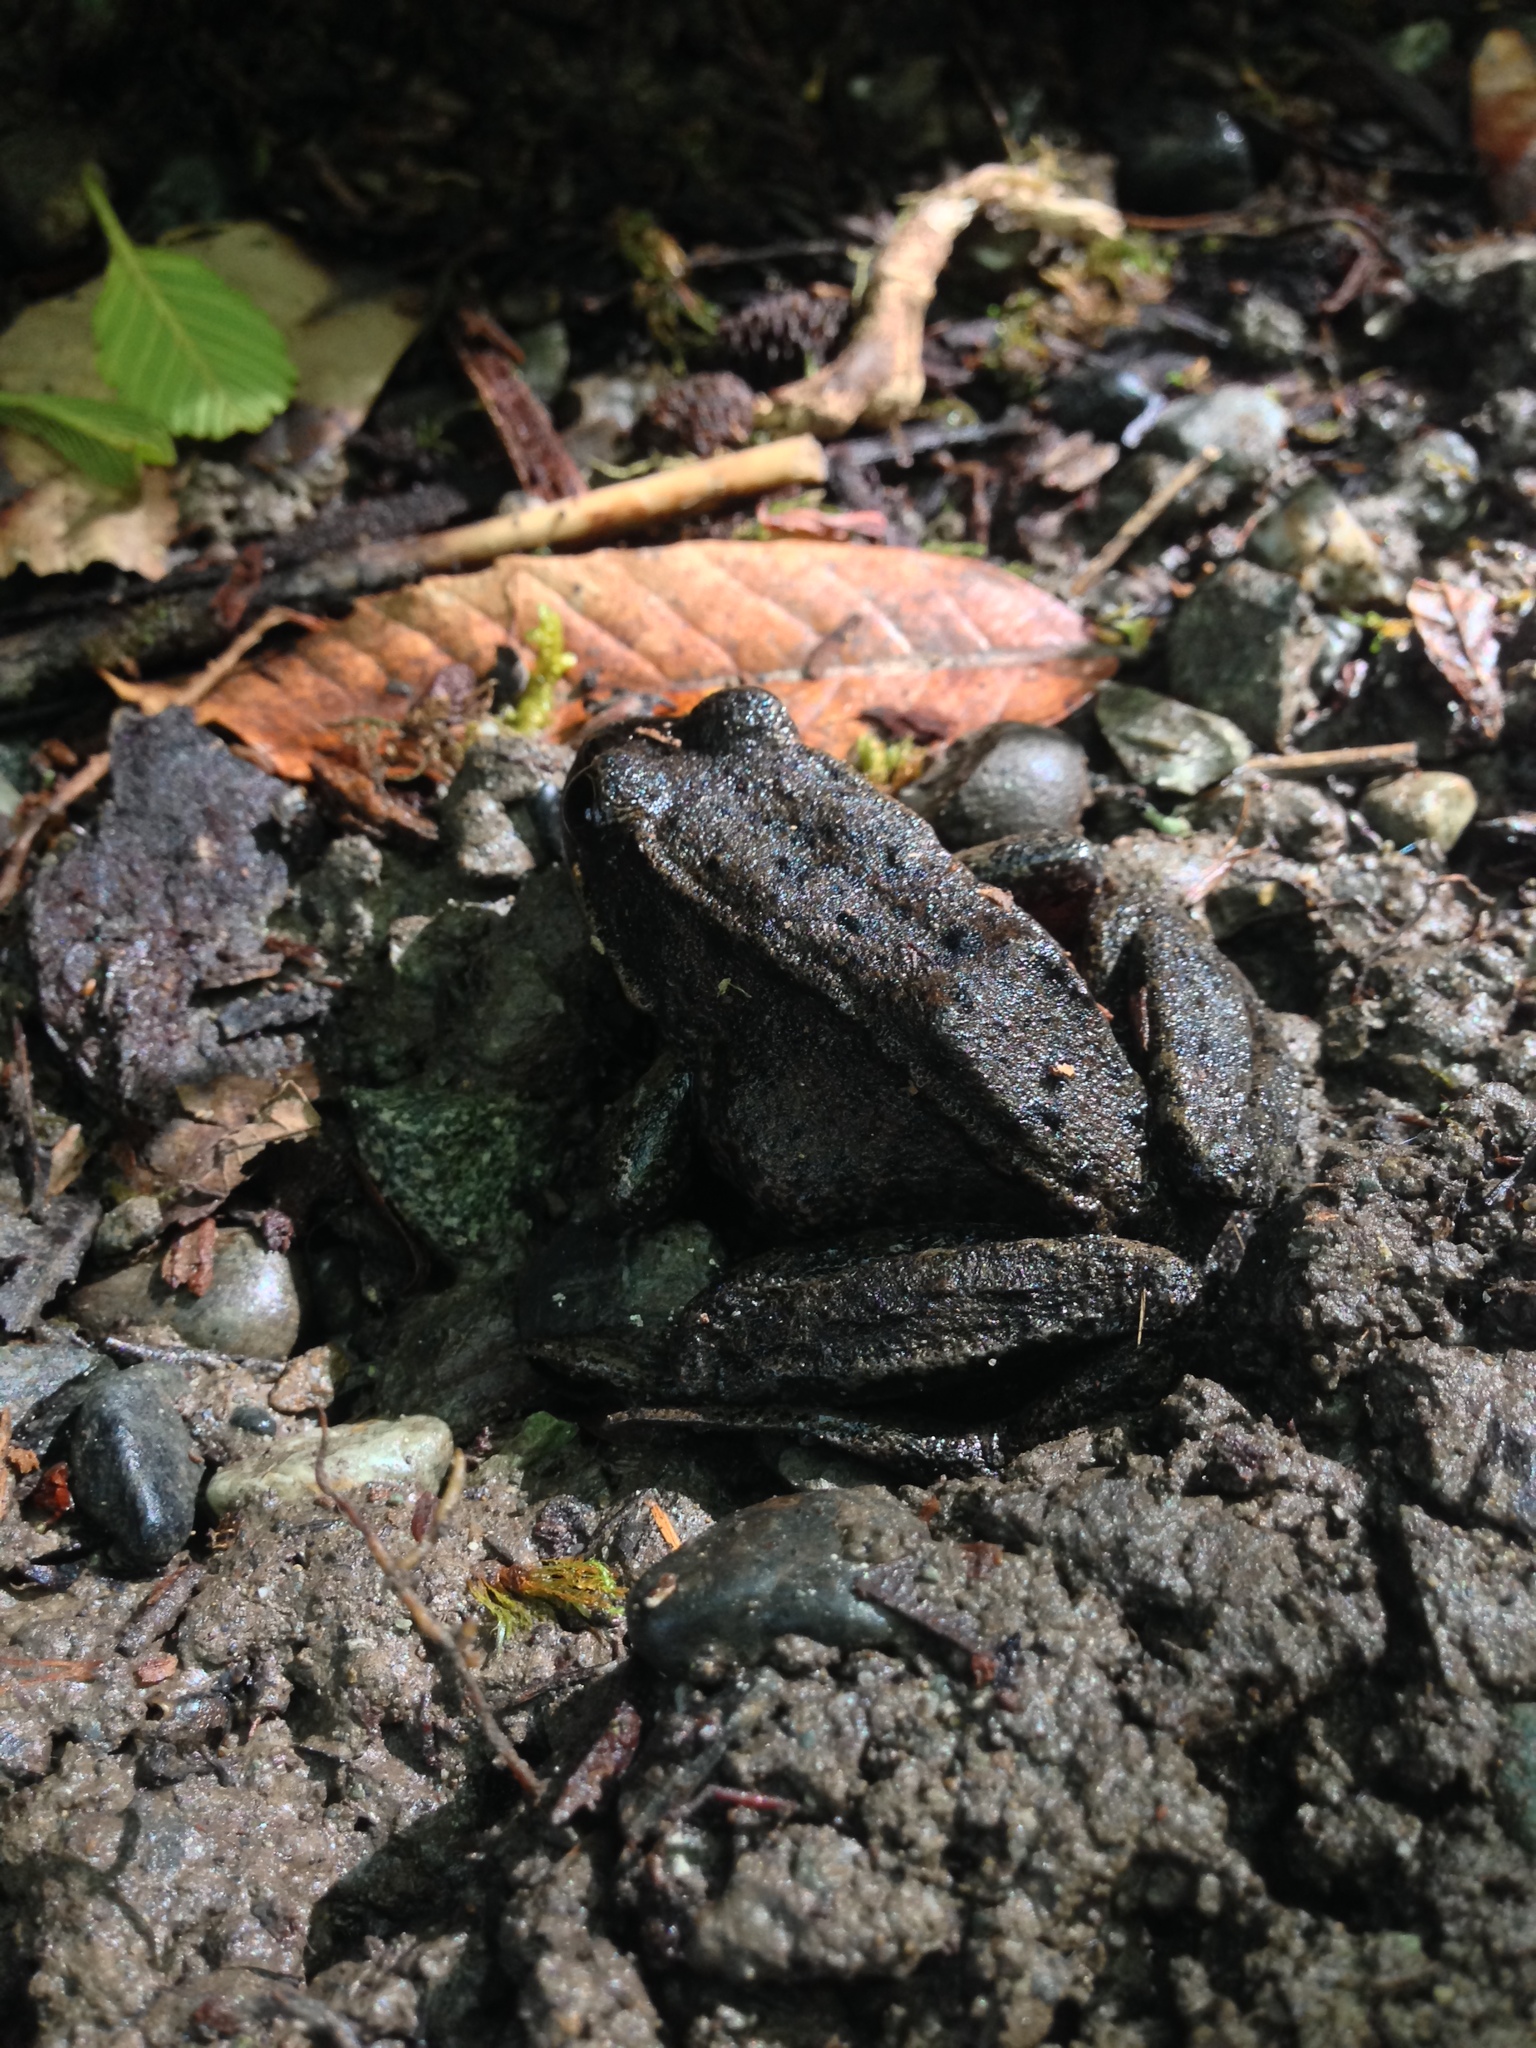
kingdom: Animalia
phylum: Chordata
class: Amphibia
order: Anura
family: Ranidae
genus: Rana
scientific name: Rana aurora
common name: Red-legged frog
